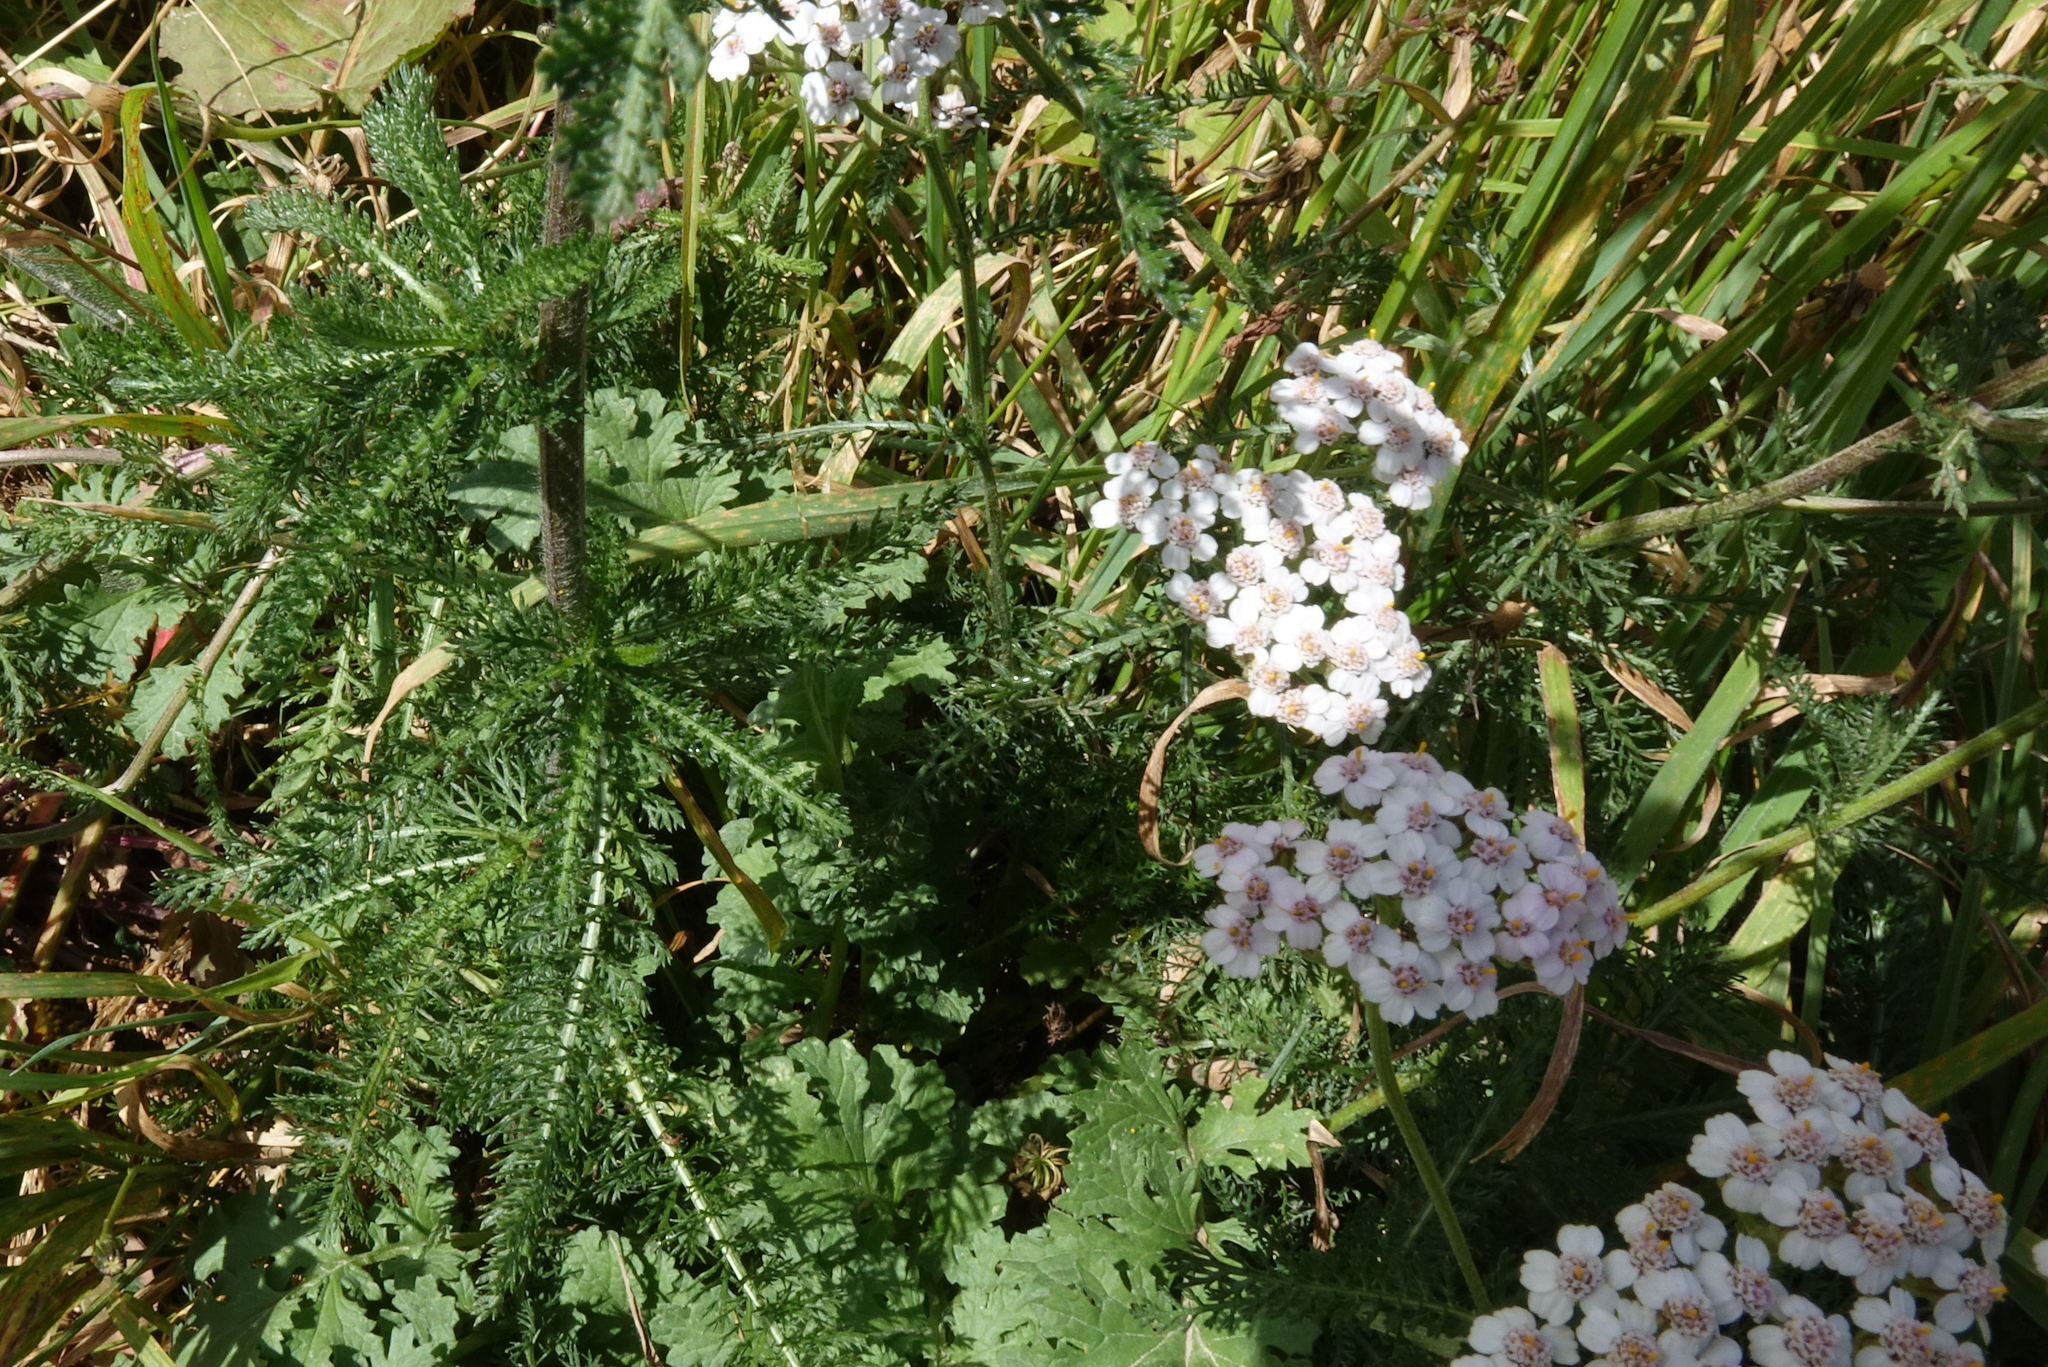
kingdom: Plantae
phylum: Tracheophyta
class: Magnoliopsida
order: Asterales
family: Asteraceae
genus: Achillea
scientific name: Achillea millefolium
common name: Yarrow
